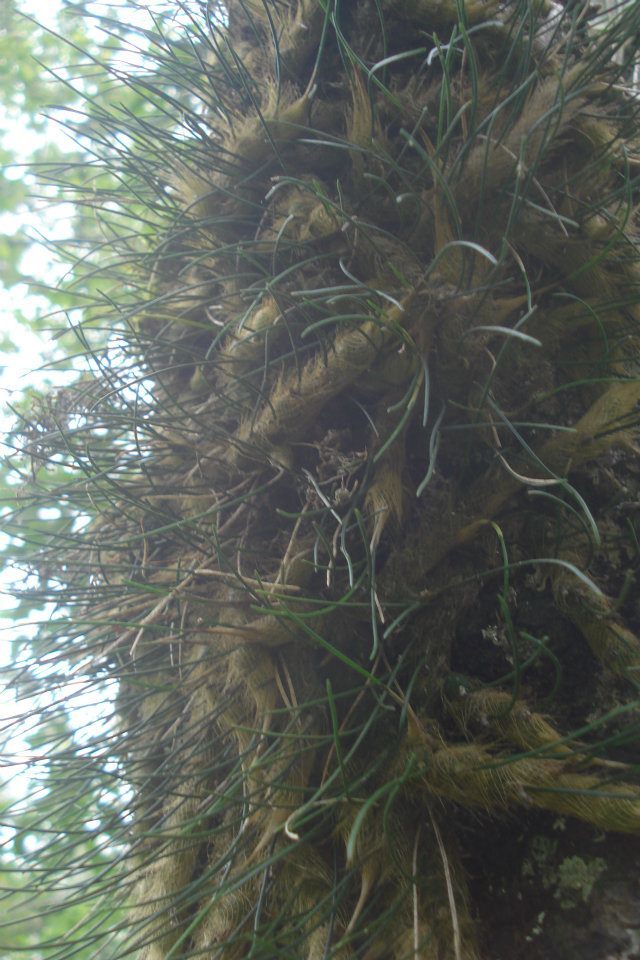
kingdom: Plantae
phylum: Tracheophyta
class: Liliopsida
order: Asparagales
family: Orchidaceae
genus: Isabelia
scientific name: Isabelia virginalis
